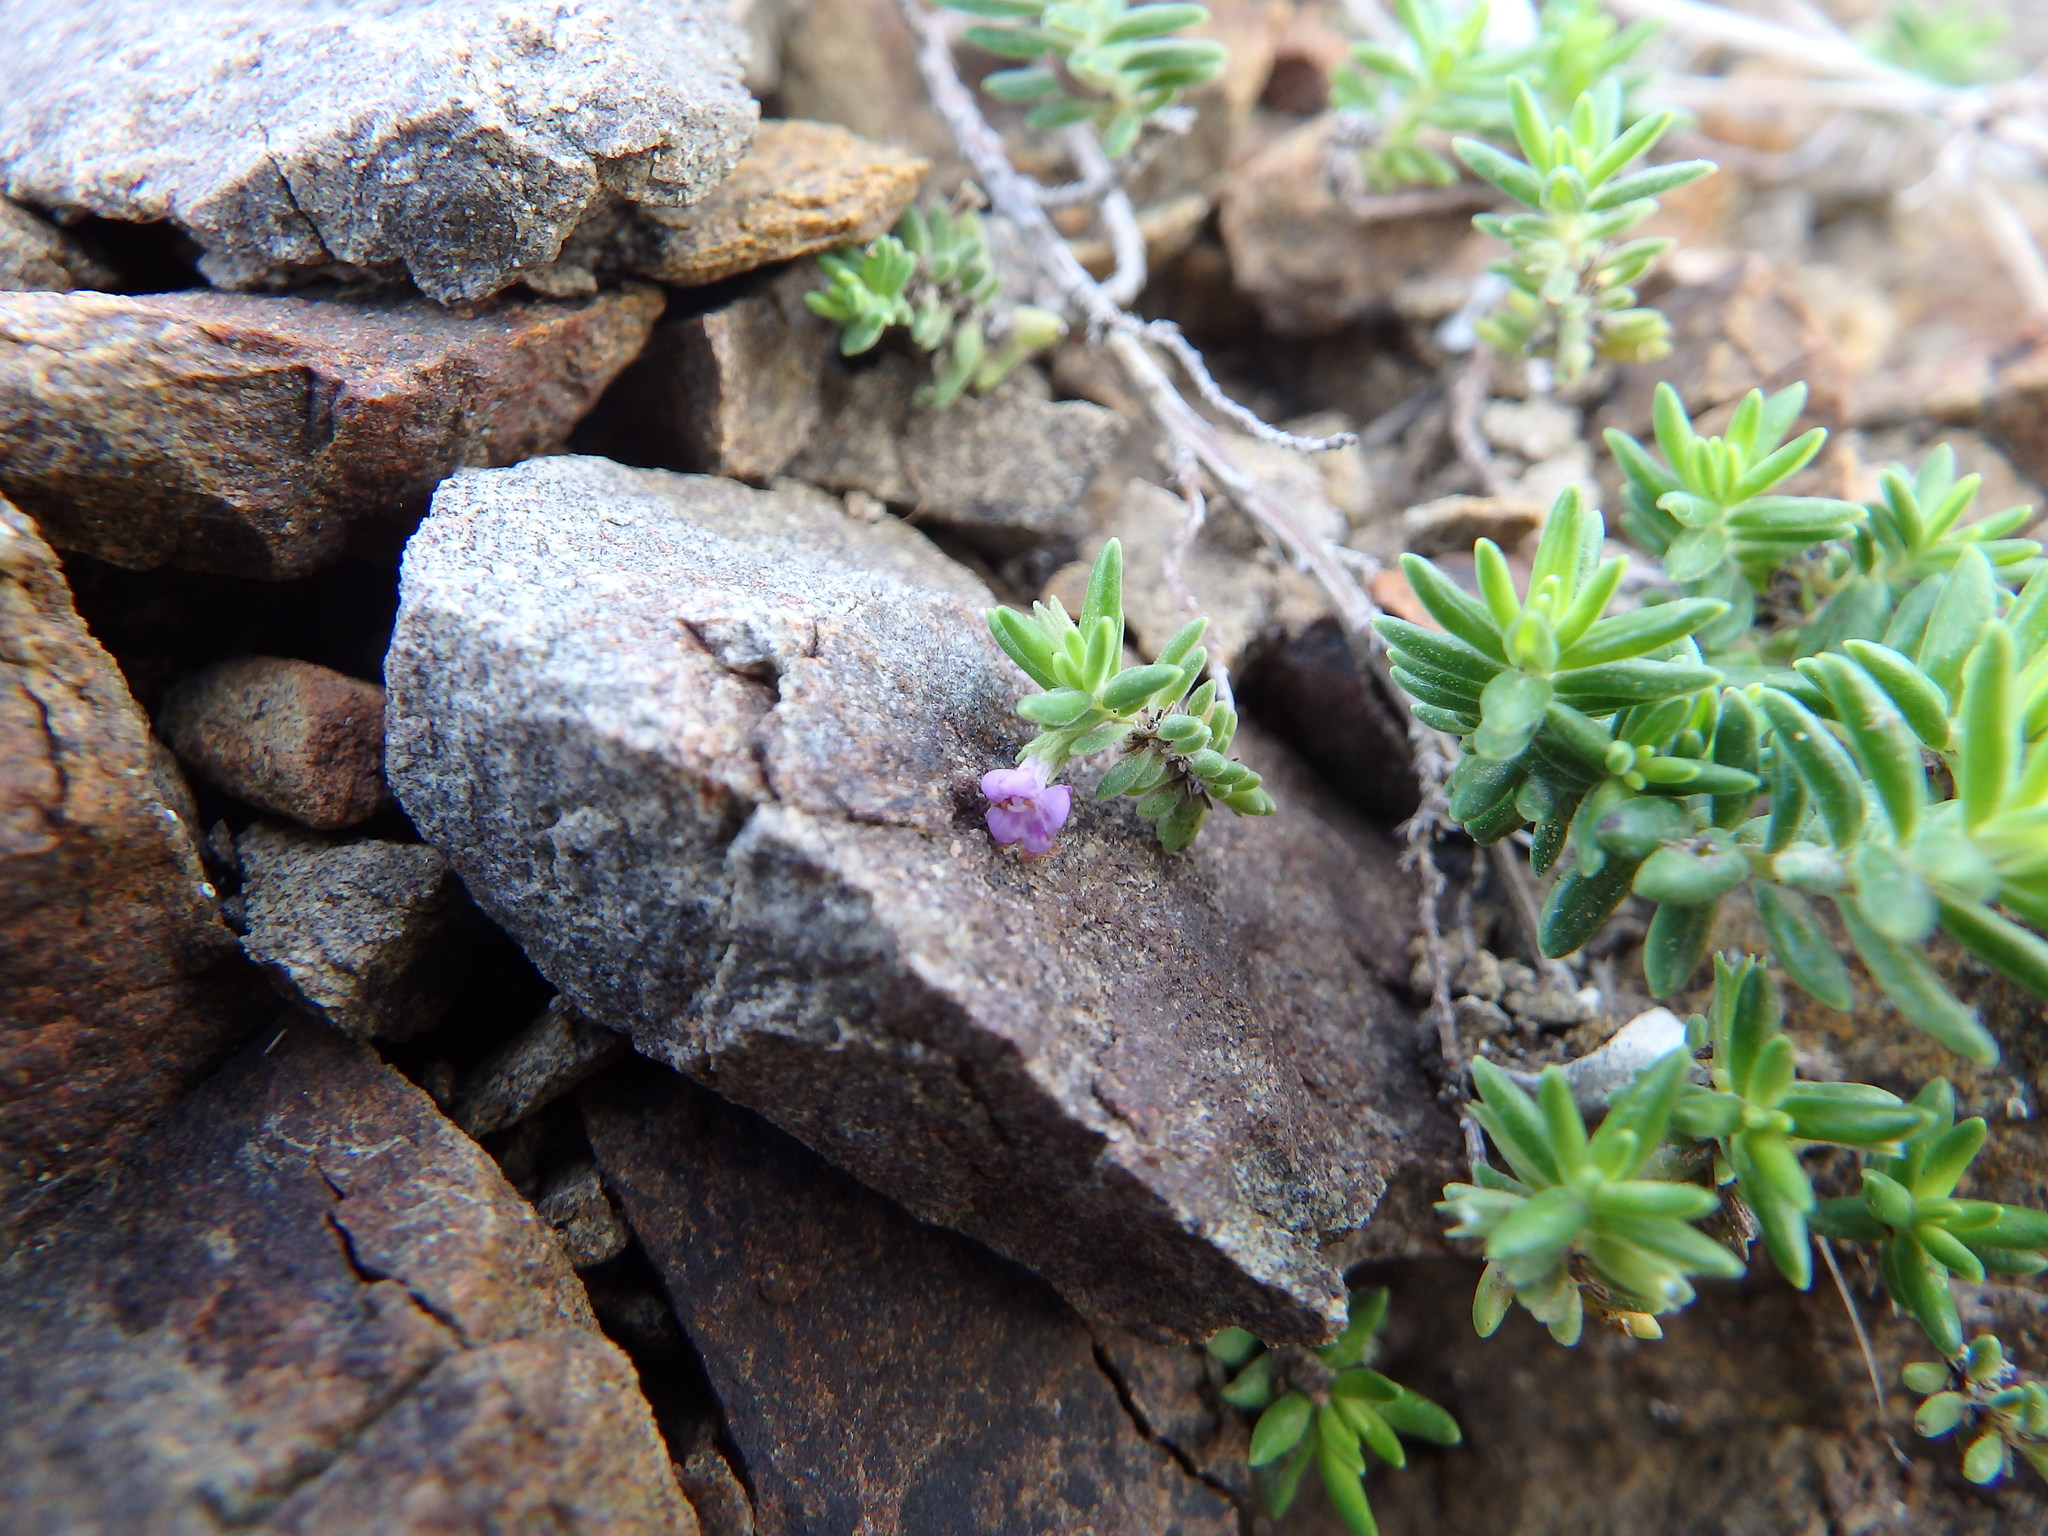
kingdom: Plantae
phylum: Tracheophyta
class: Magnoliopsida
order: Lamiales
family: Lamiaceae
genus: Micromeria
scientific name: Micromeria maderensis
